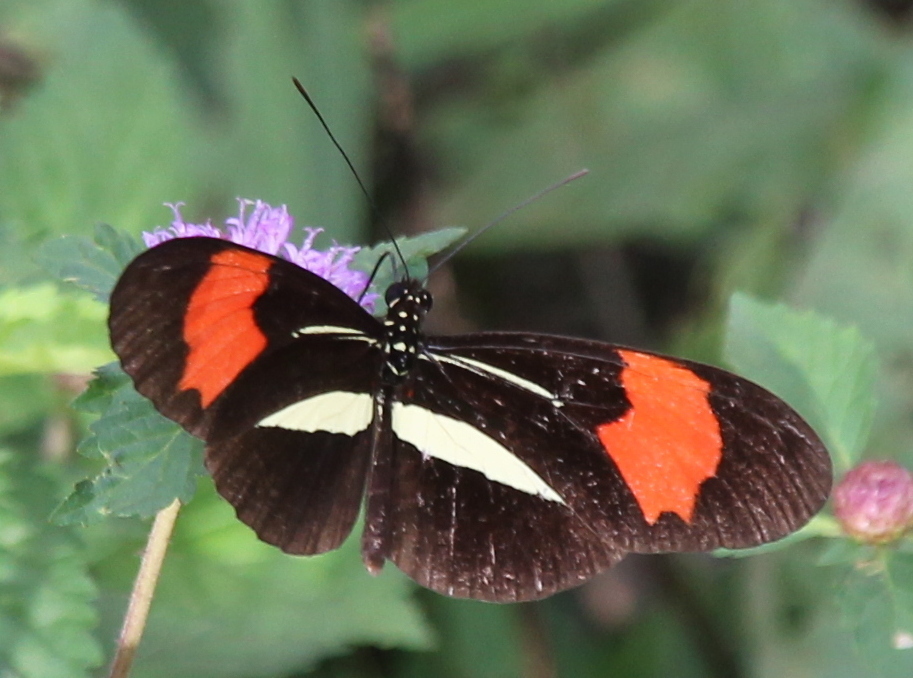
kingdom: Animalia
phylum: Arthropoda
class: Insecta
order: Lepidoptera
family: Nymphalidae
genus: Heliconius
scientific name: Heliconius erato
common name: Common patch longwing
